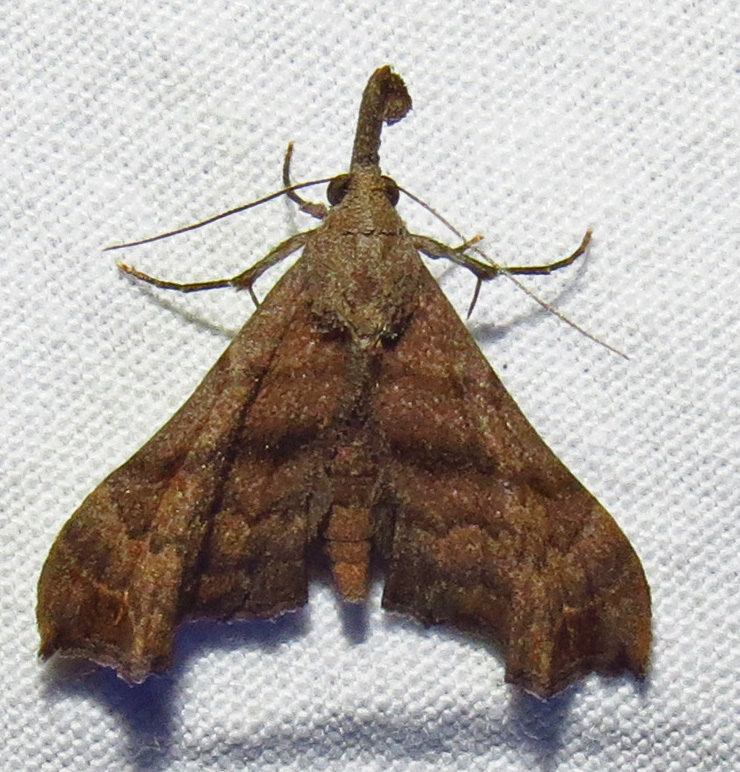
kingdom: Animalia
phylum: Arthropoda
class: Insecta
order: Lepidoptera
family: Erebidae
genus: Palthis
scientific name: Palthis angulalis
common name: Dark-spotted palthis moth
